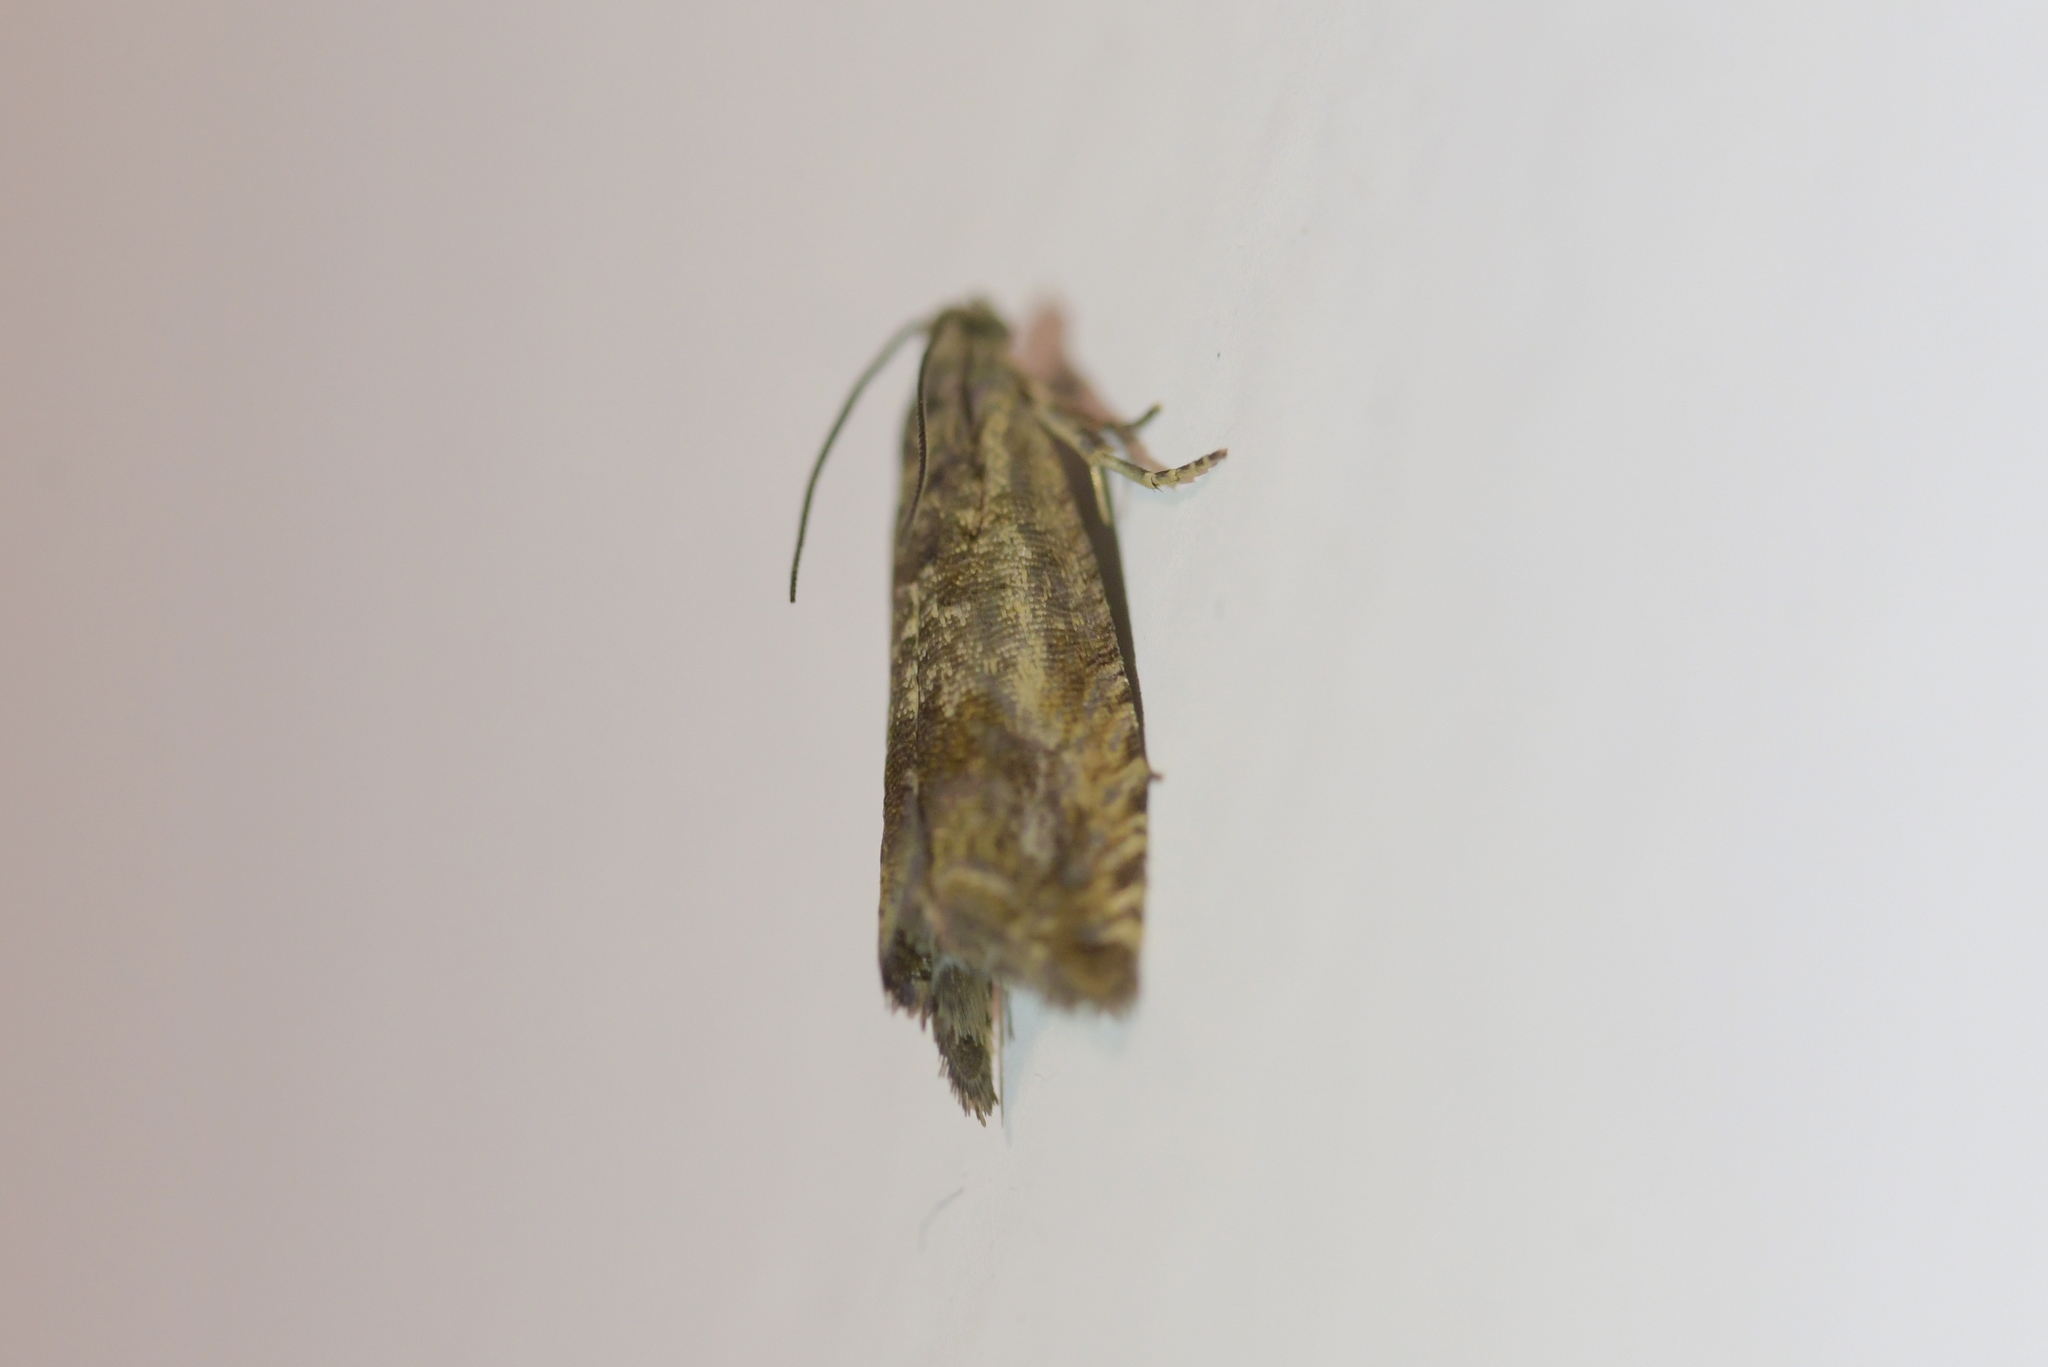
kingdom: Animalia
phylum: Arthropoda
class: Insecta
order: Lepidoptera
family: Tortricidae
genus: Cydia
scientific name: Cydia succedana
